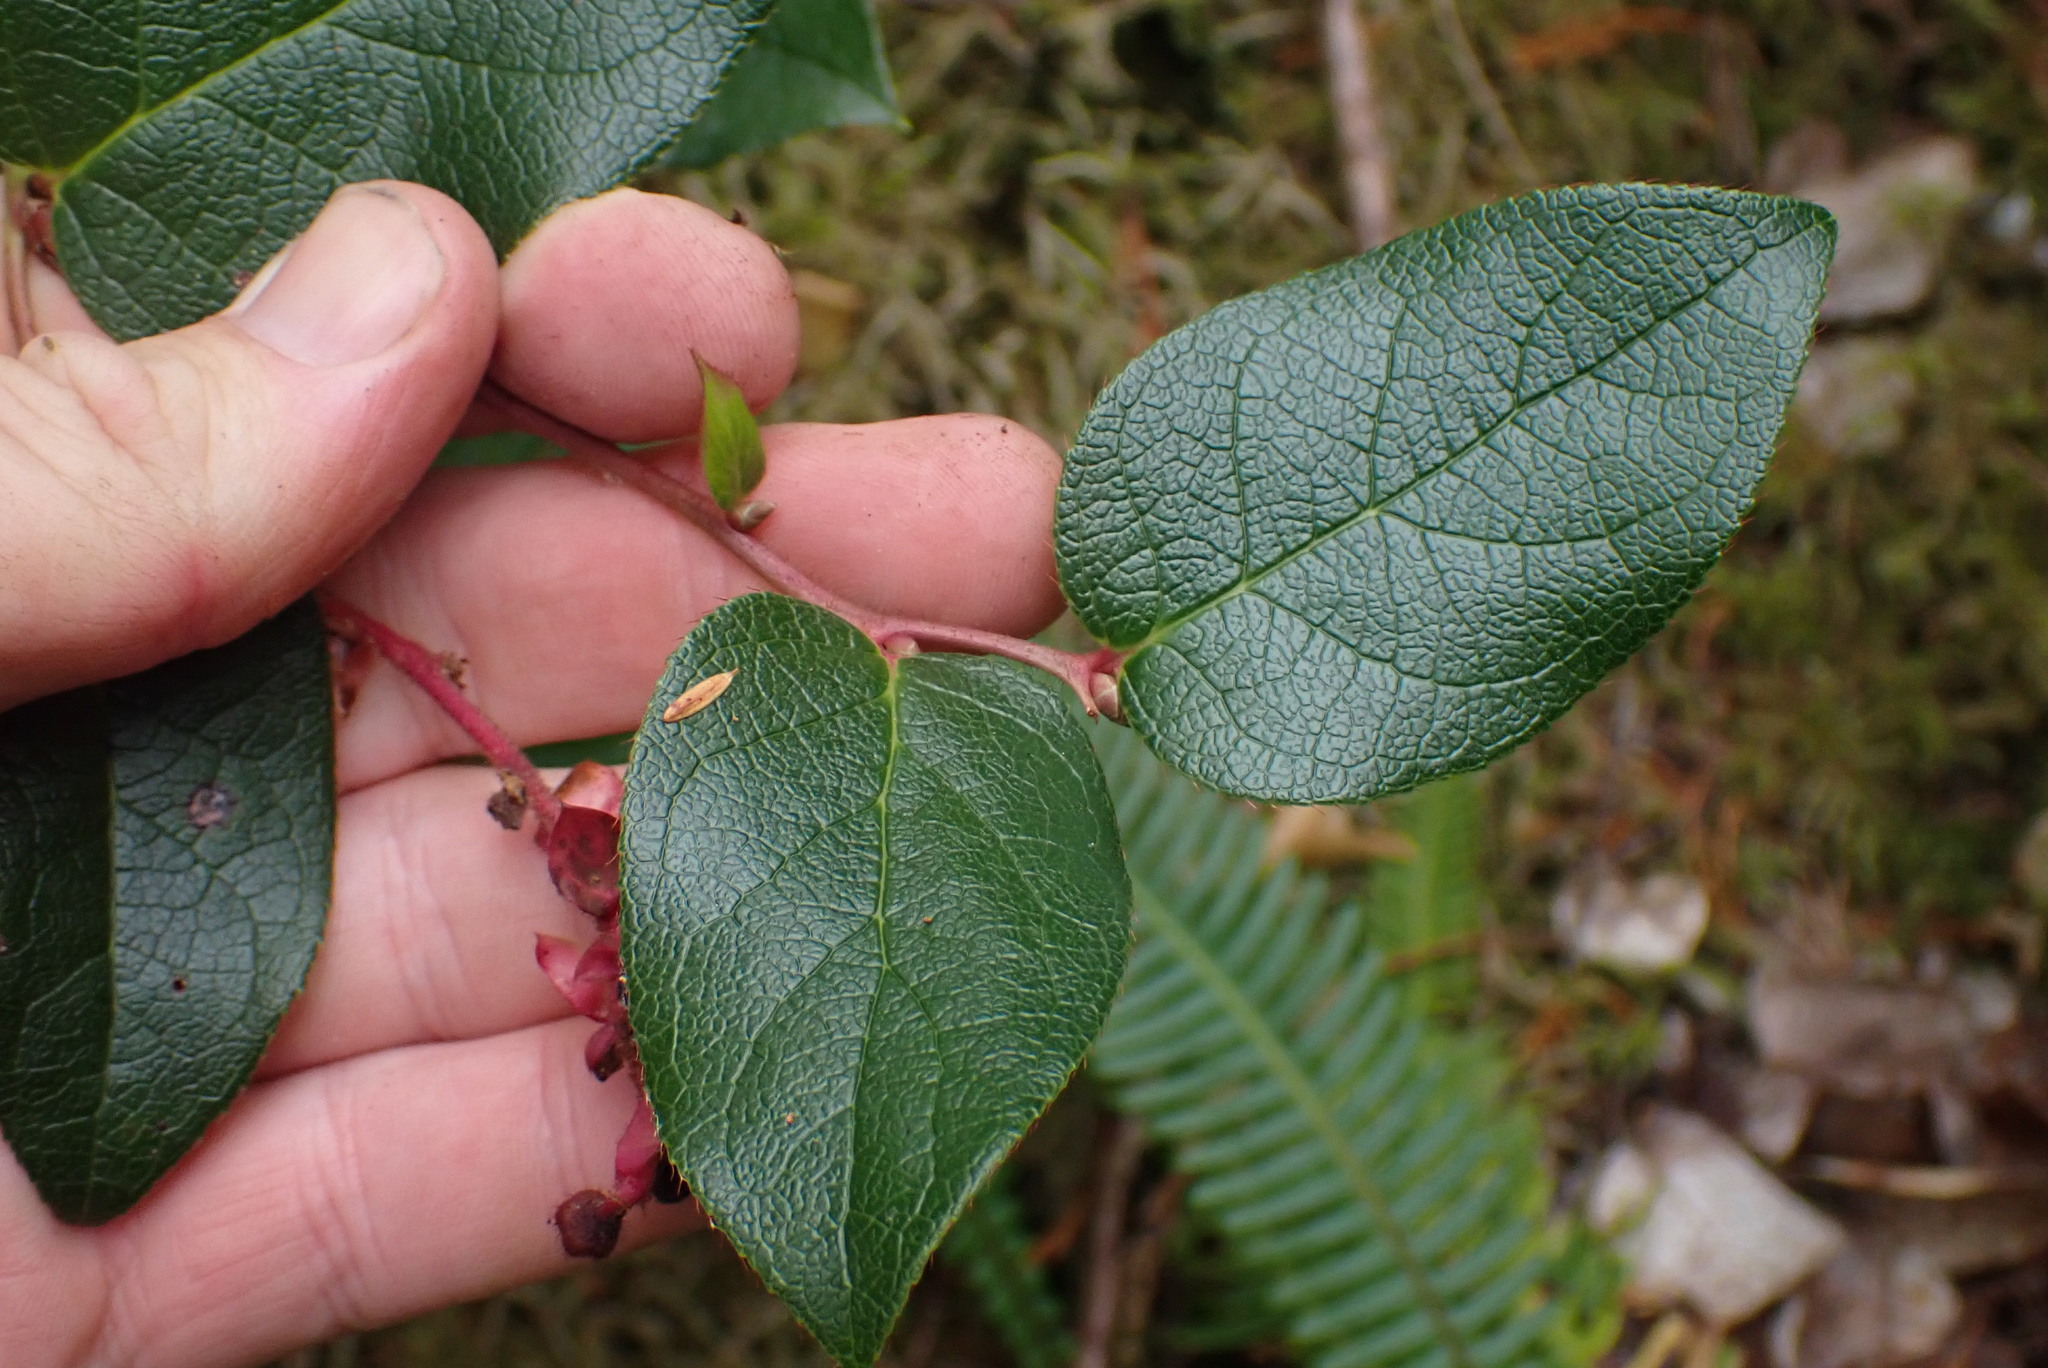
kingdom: Plantae
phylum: Tracheophyta
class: Magnoliopsida
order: Ericales
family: Ericaceae
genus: Gaultheria
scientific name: Gaultheria shallon
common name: Shallon
